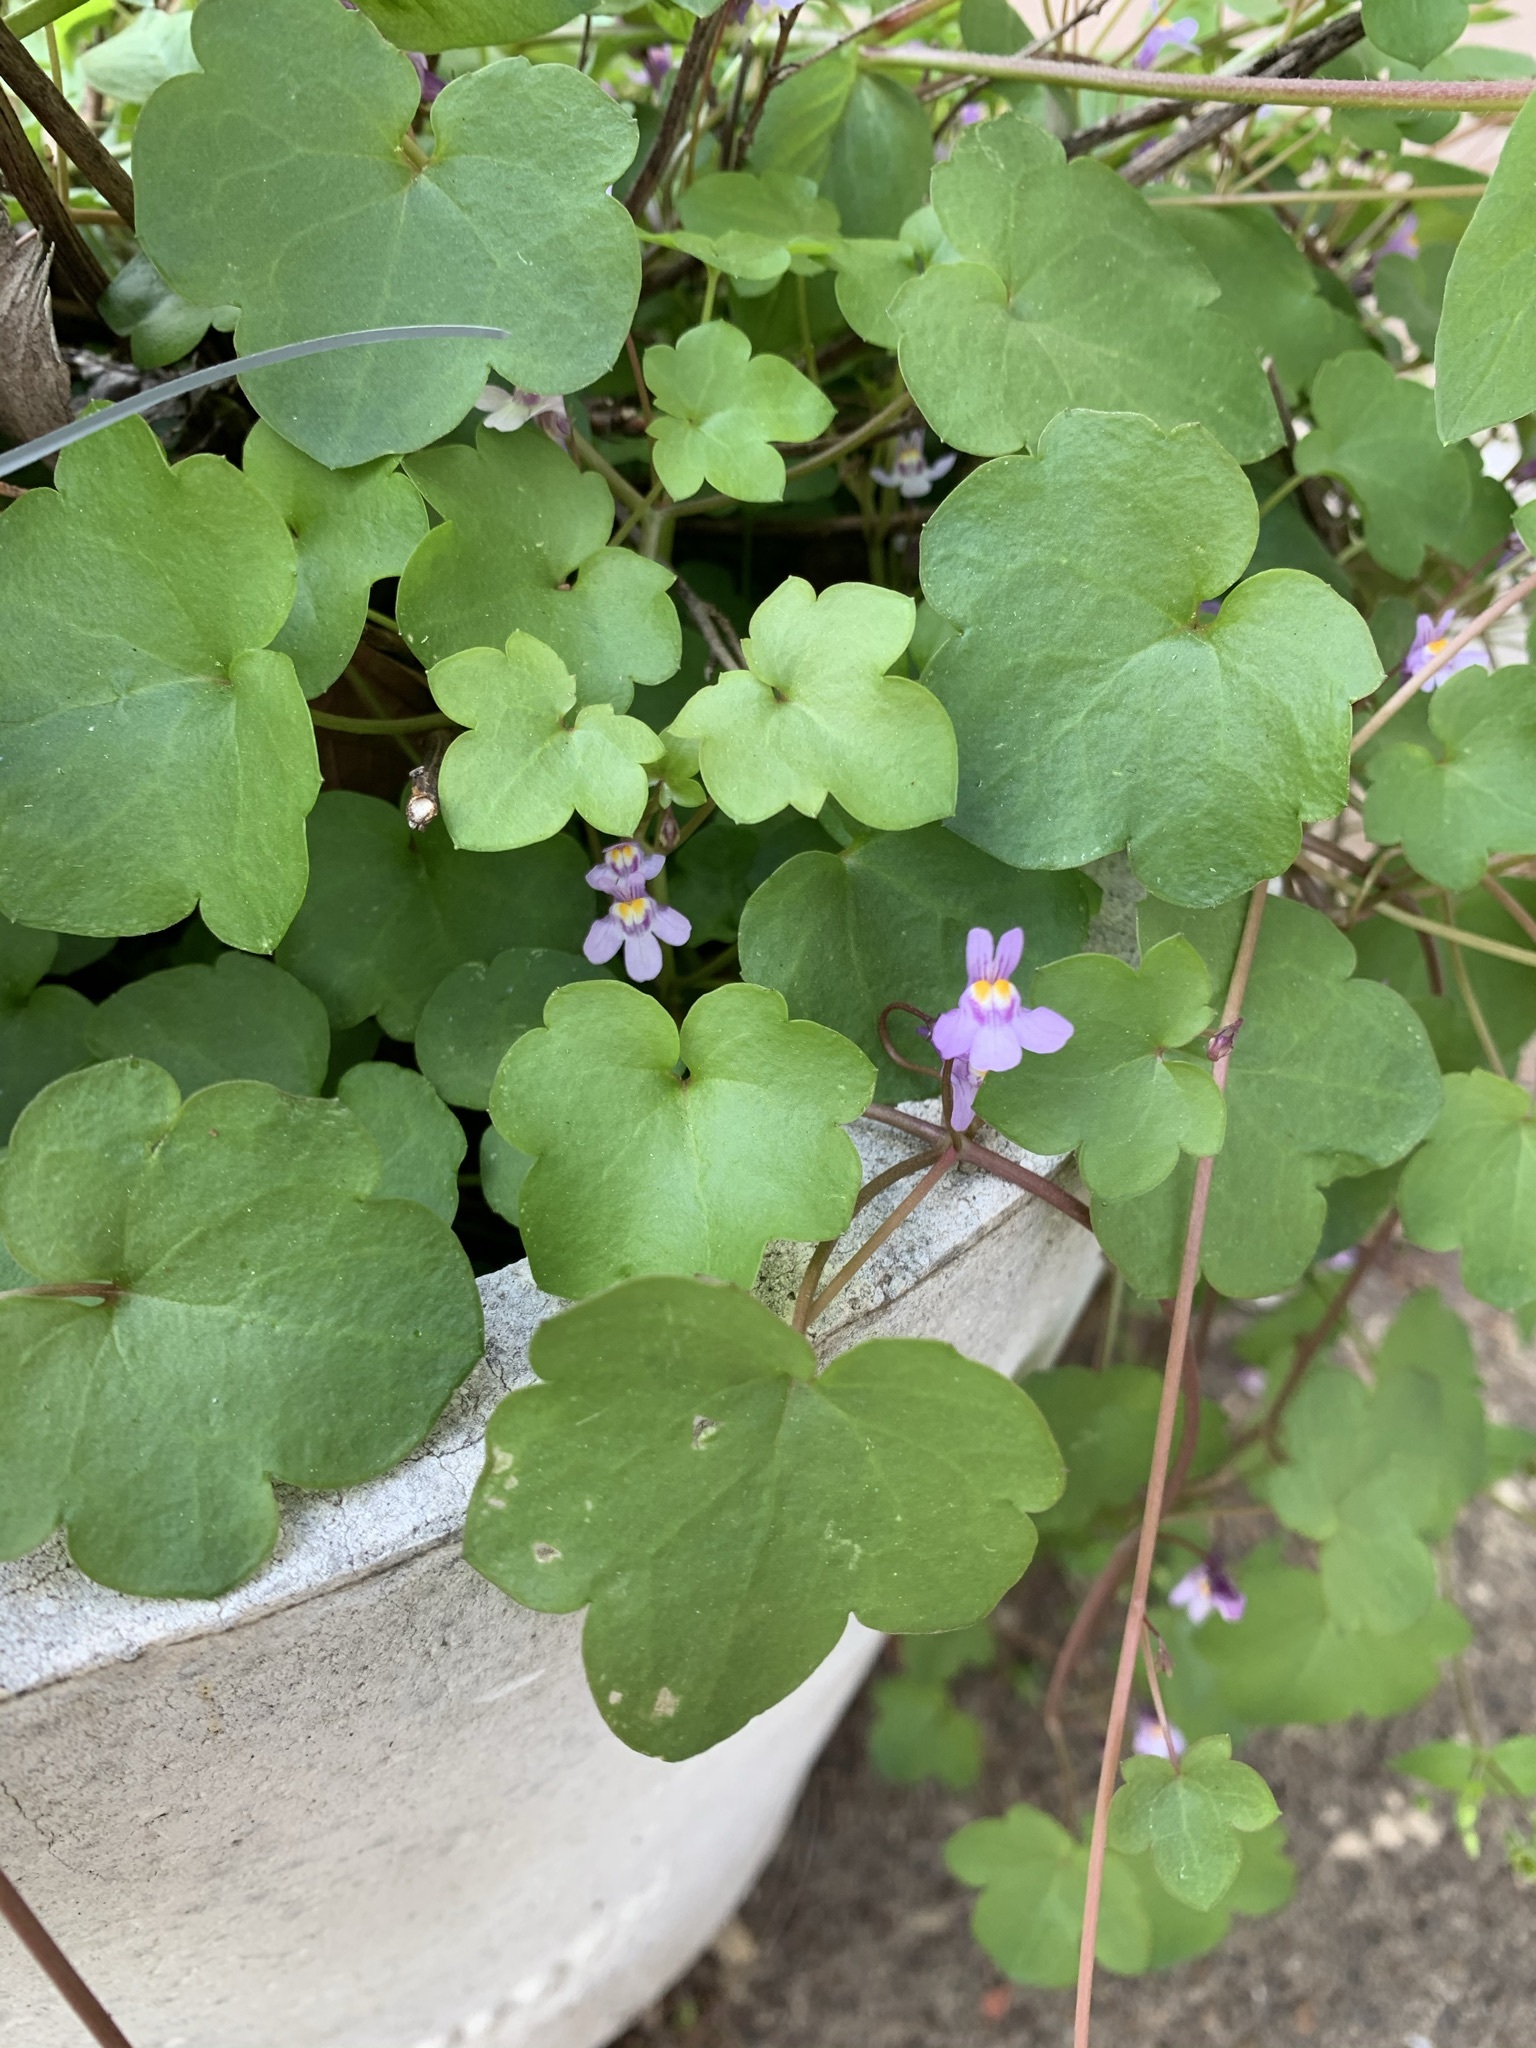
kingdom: Plantae
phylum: Tracheophyta
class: Magnoliopsida
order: Lamiales
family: Plantaginaceae
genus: Cymbalaria
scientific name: Cymbalaria muralis
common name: Ivy-leaved toadflax
